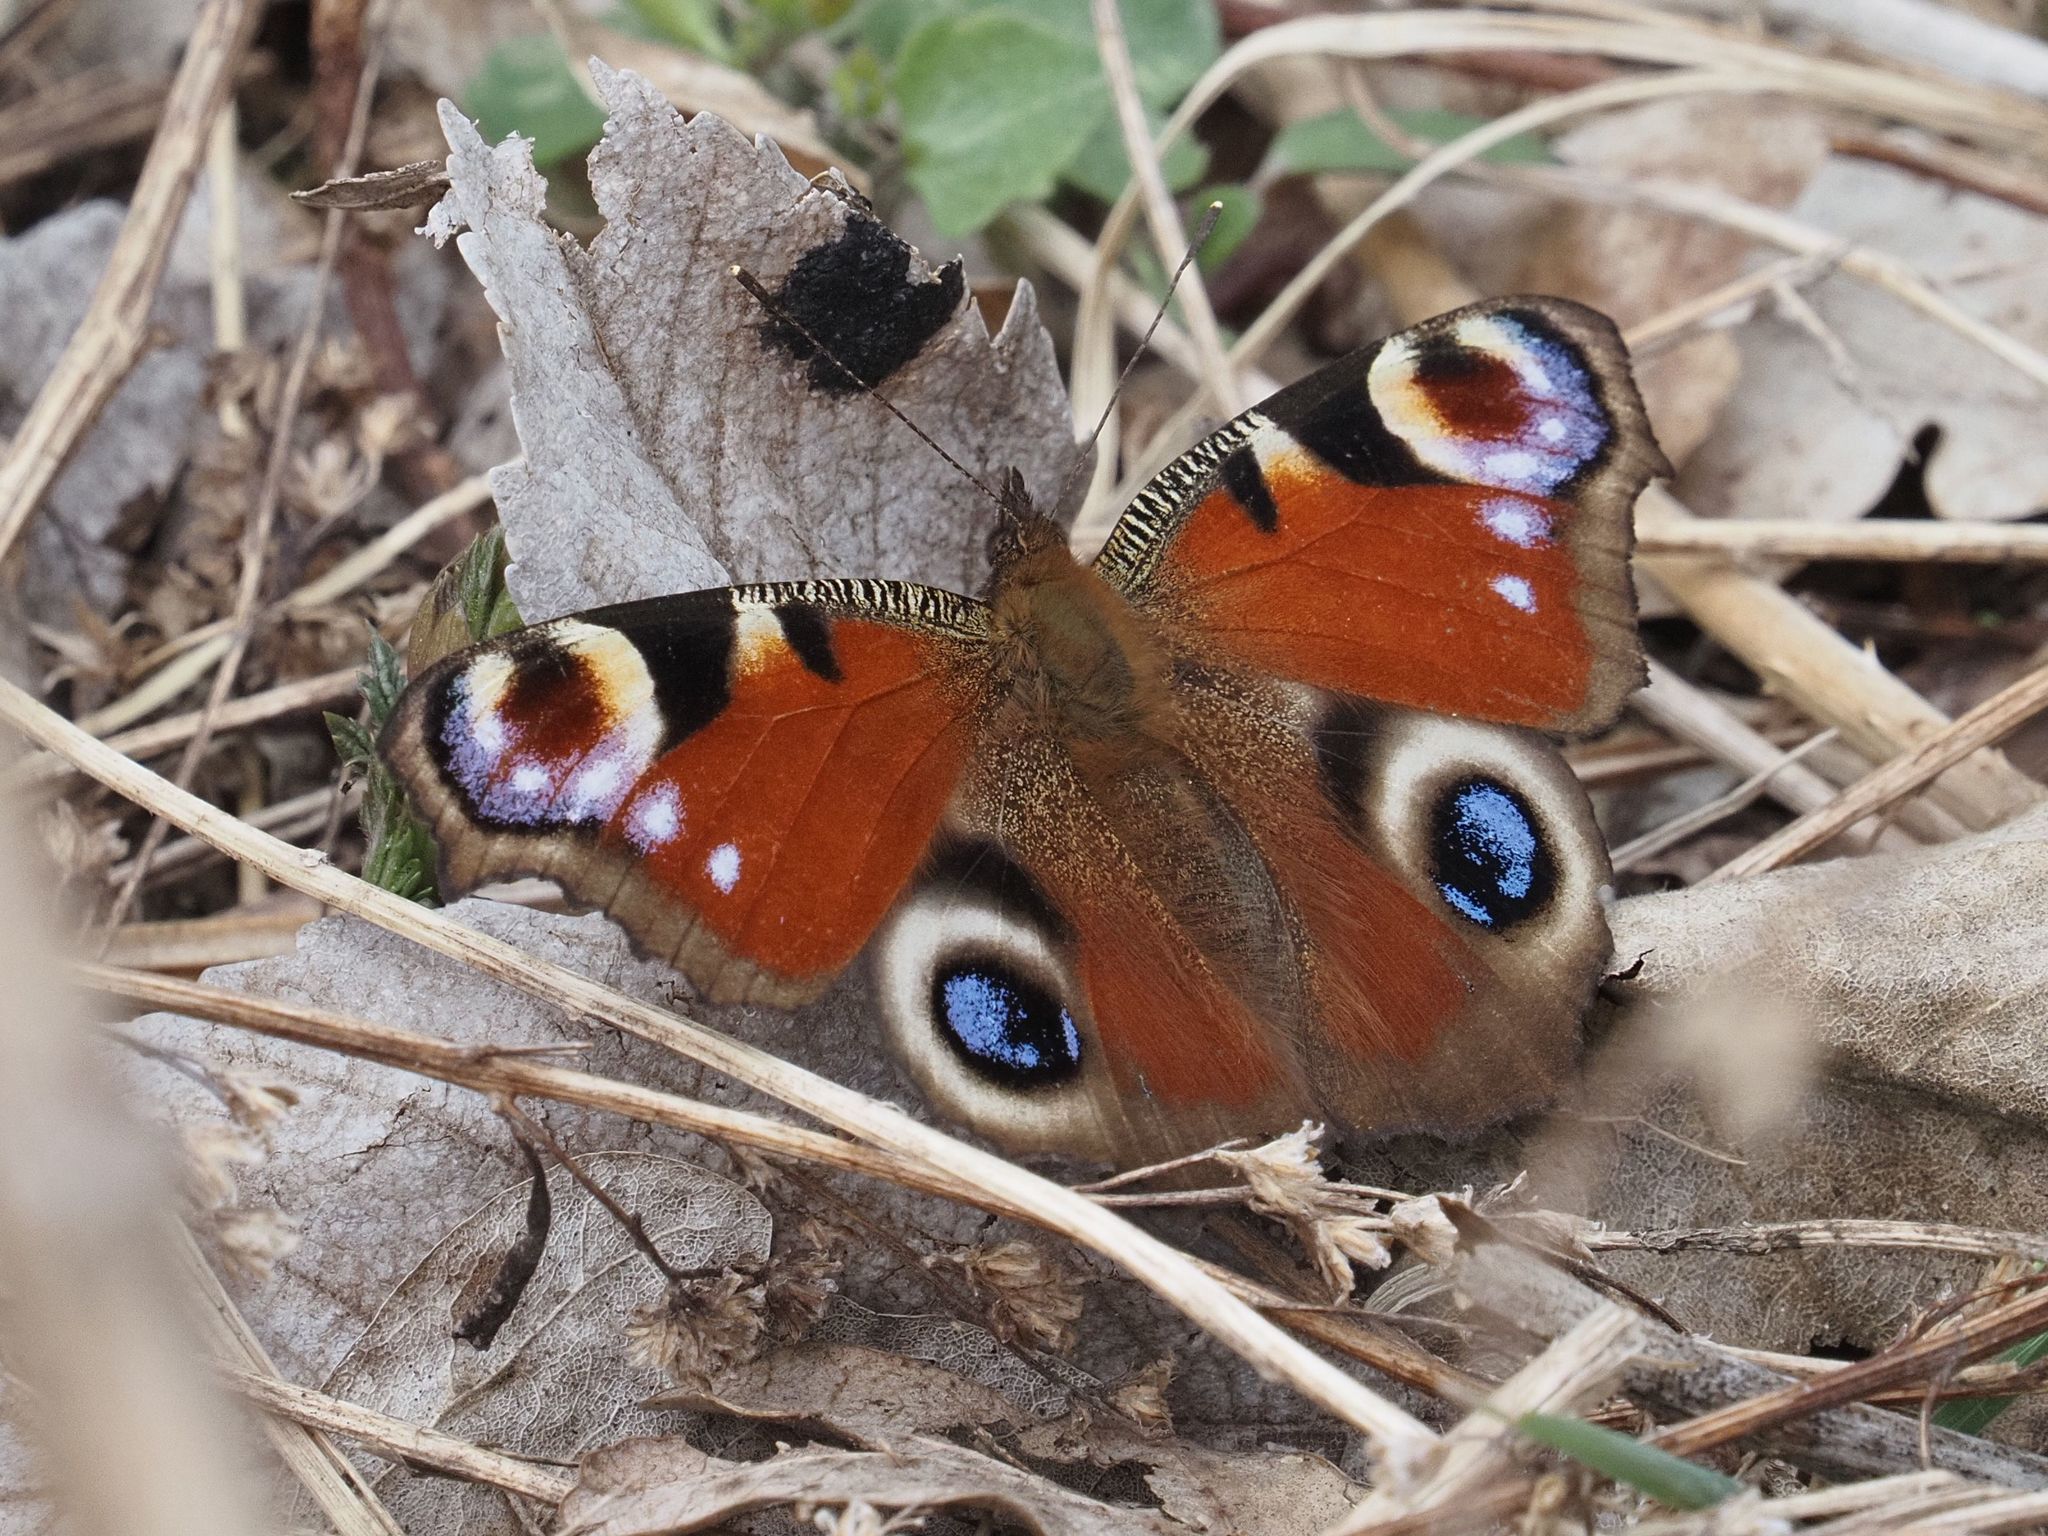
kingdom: Animalia
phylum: Arthropoda
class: Insecta
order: Lepidoptera
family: Nymphalidae
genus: Aglais
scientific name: Aglais io
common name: Peacock
